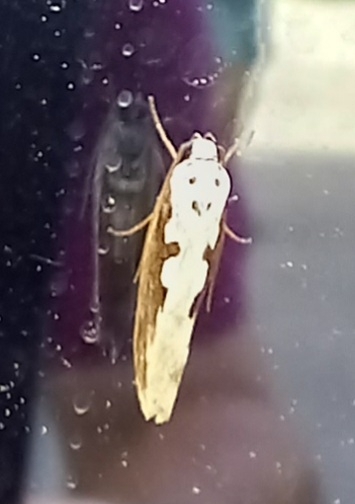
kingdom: Animalia
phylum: Arthropoda
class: Insecta
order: Lepidoptera
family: Ethmiidae
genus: Ethmia
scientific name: Ethmia bipunctella
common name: Bordered ermel
